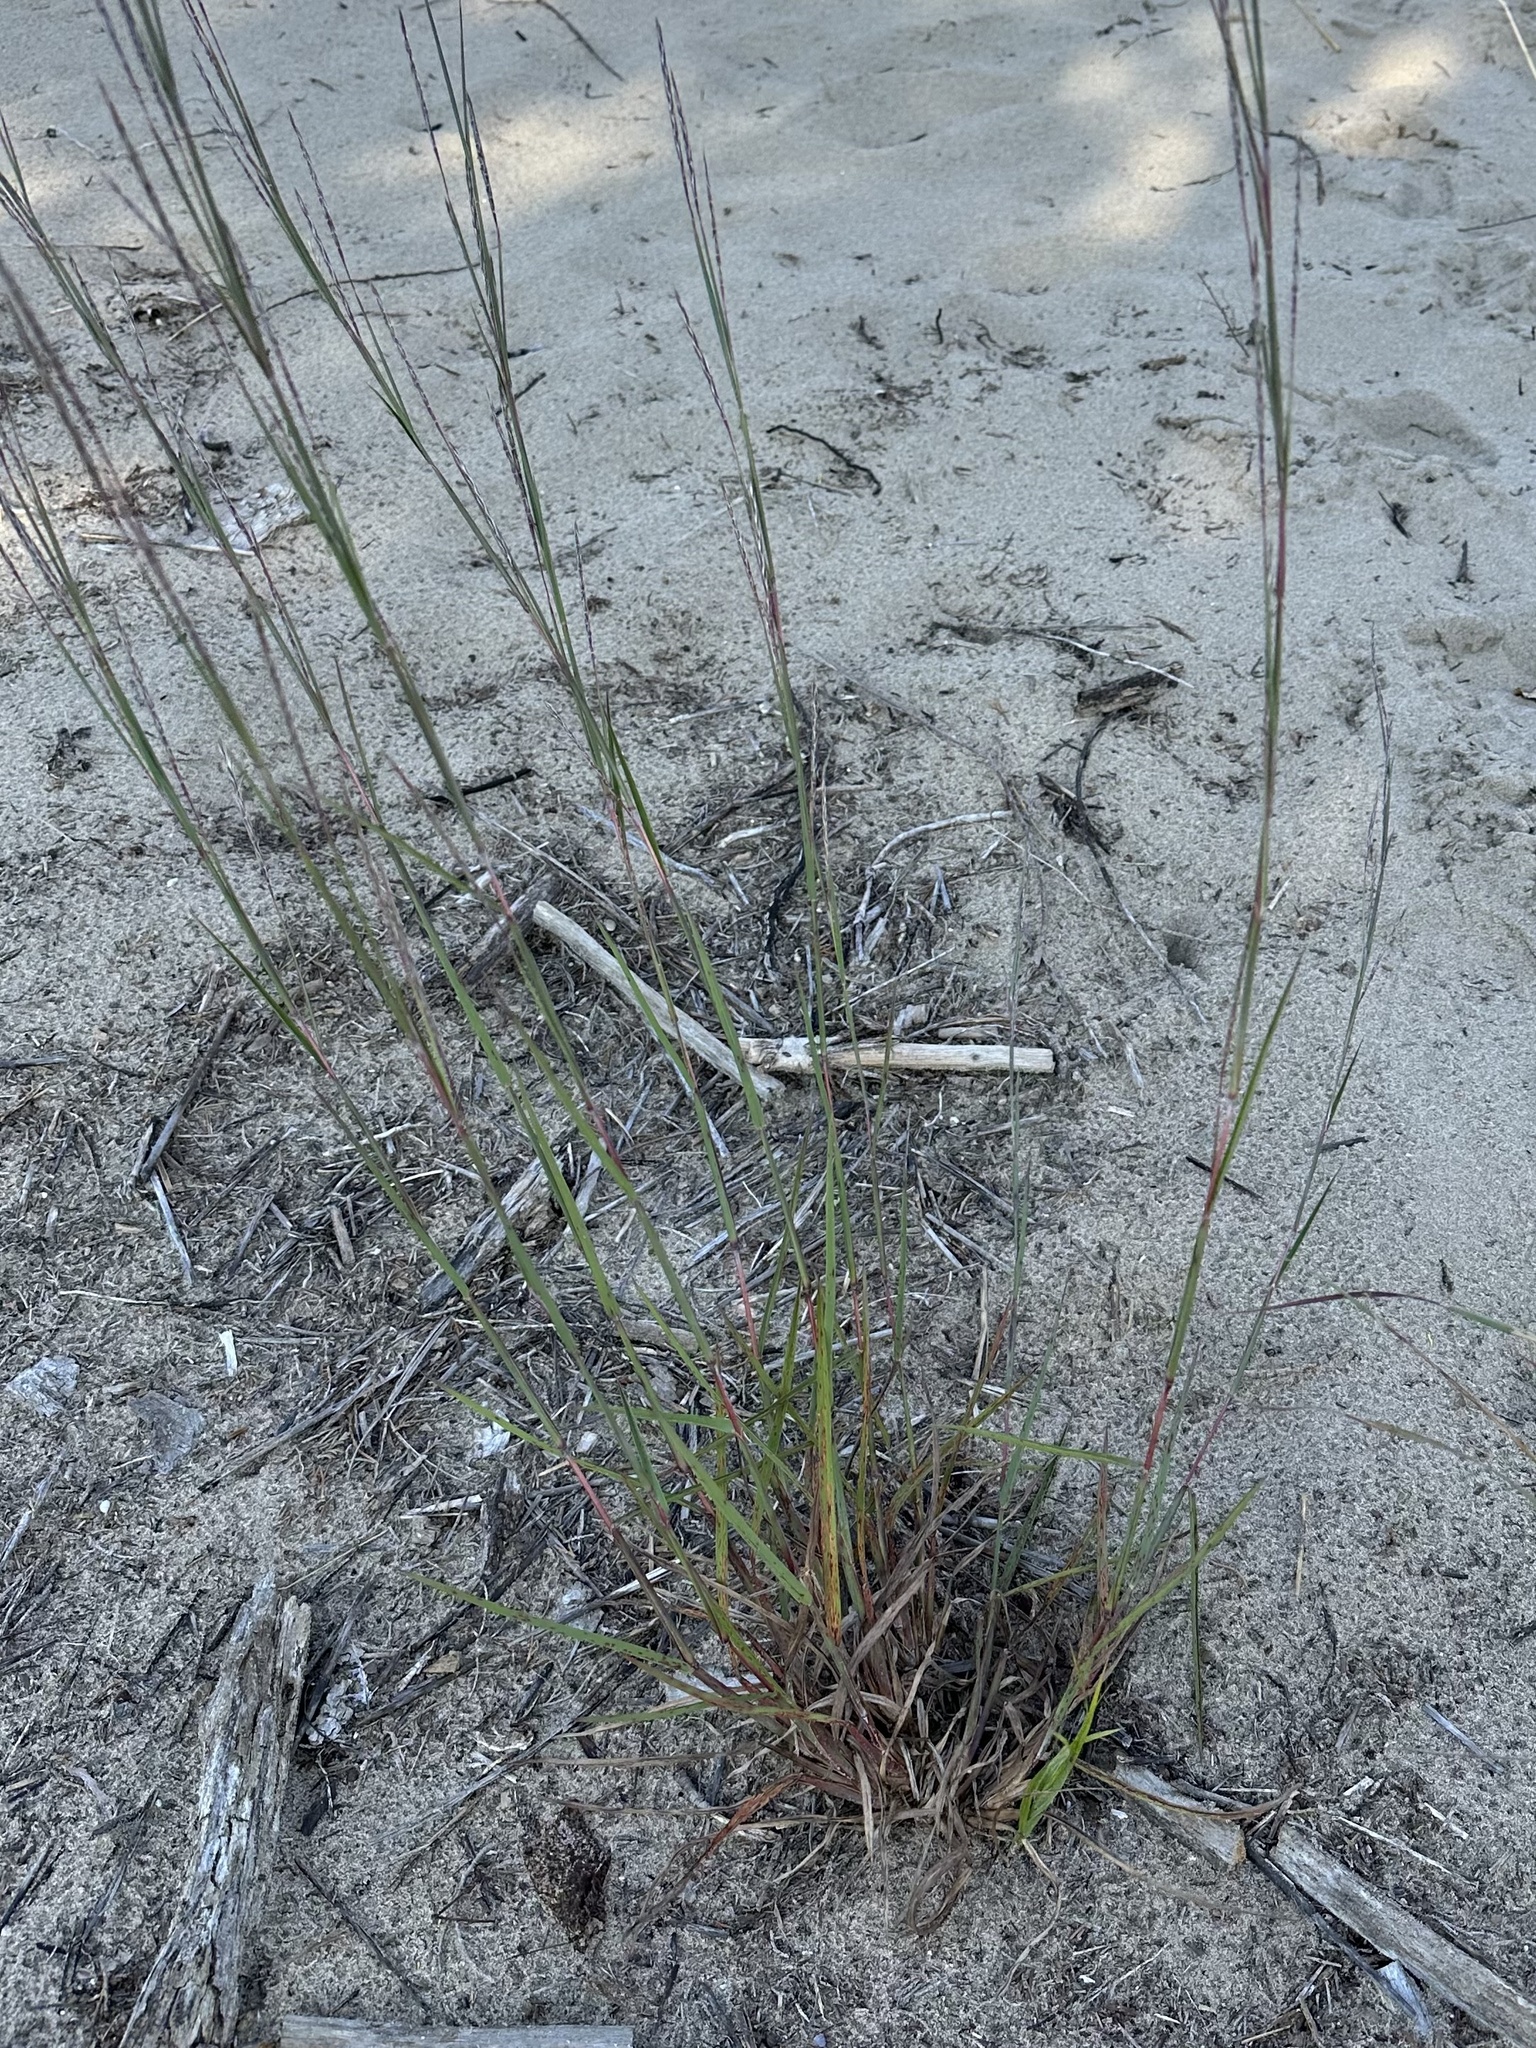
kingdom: Plantae
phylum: Tracheophyta
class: Liliopsida
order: Poales
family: Poaceae
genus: Schizachyrium
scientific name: Schizachyrium scoparium
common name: Little bluestem
